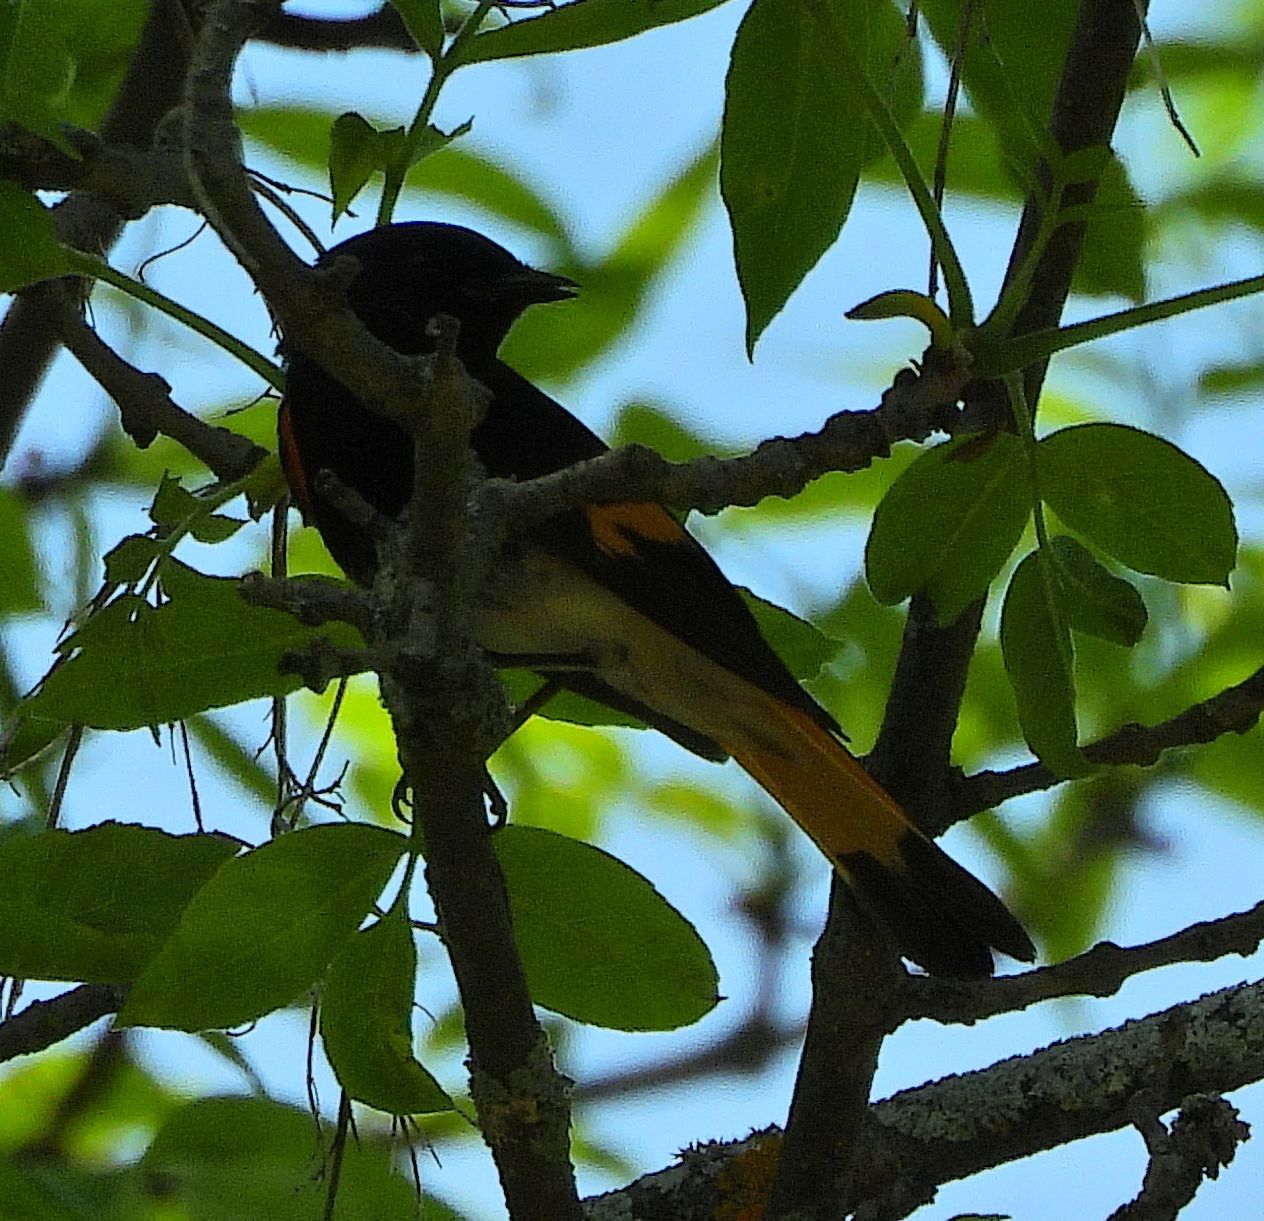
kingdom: Animalia
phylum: Chordata
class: Aves
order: Passeriformes
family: Parulidae
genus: Setophaga
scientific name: Setophaga ruticilla
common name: American redstart
